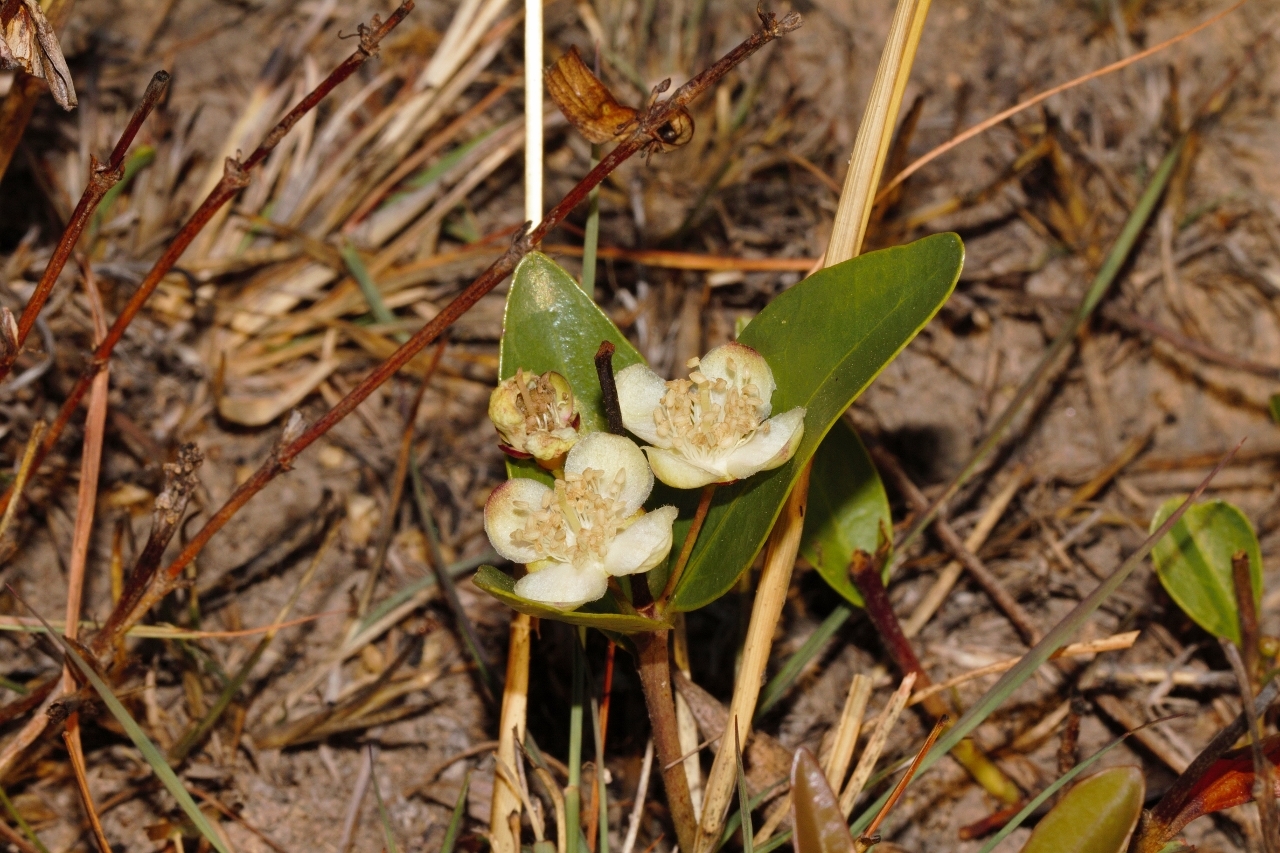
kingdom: Plantae
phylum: Tracheophyta
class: Magnoliopsida
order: Myrtales
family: Myrtaceae
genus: Eugenia
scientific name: Eugenia malangensis
